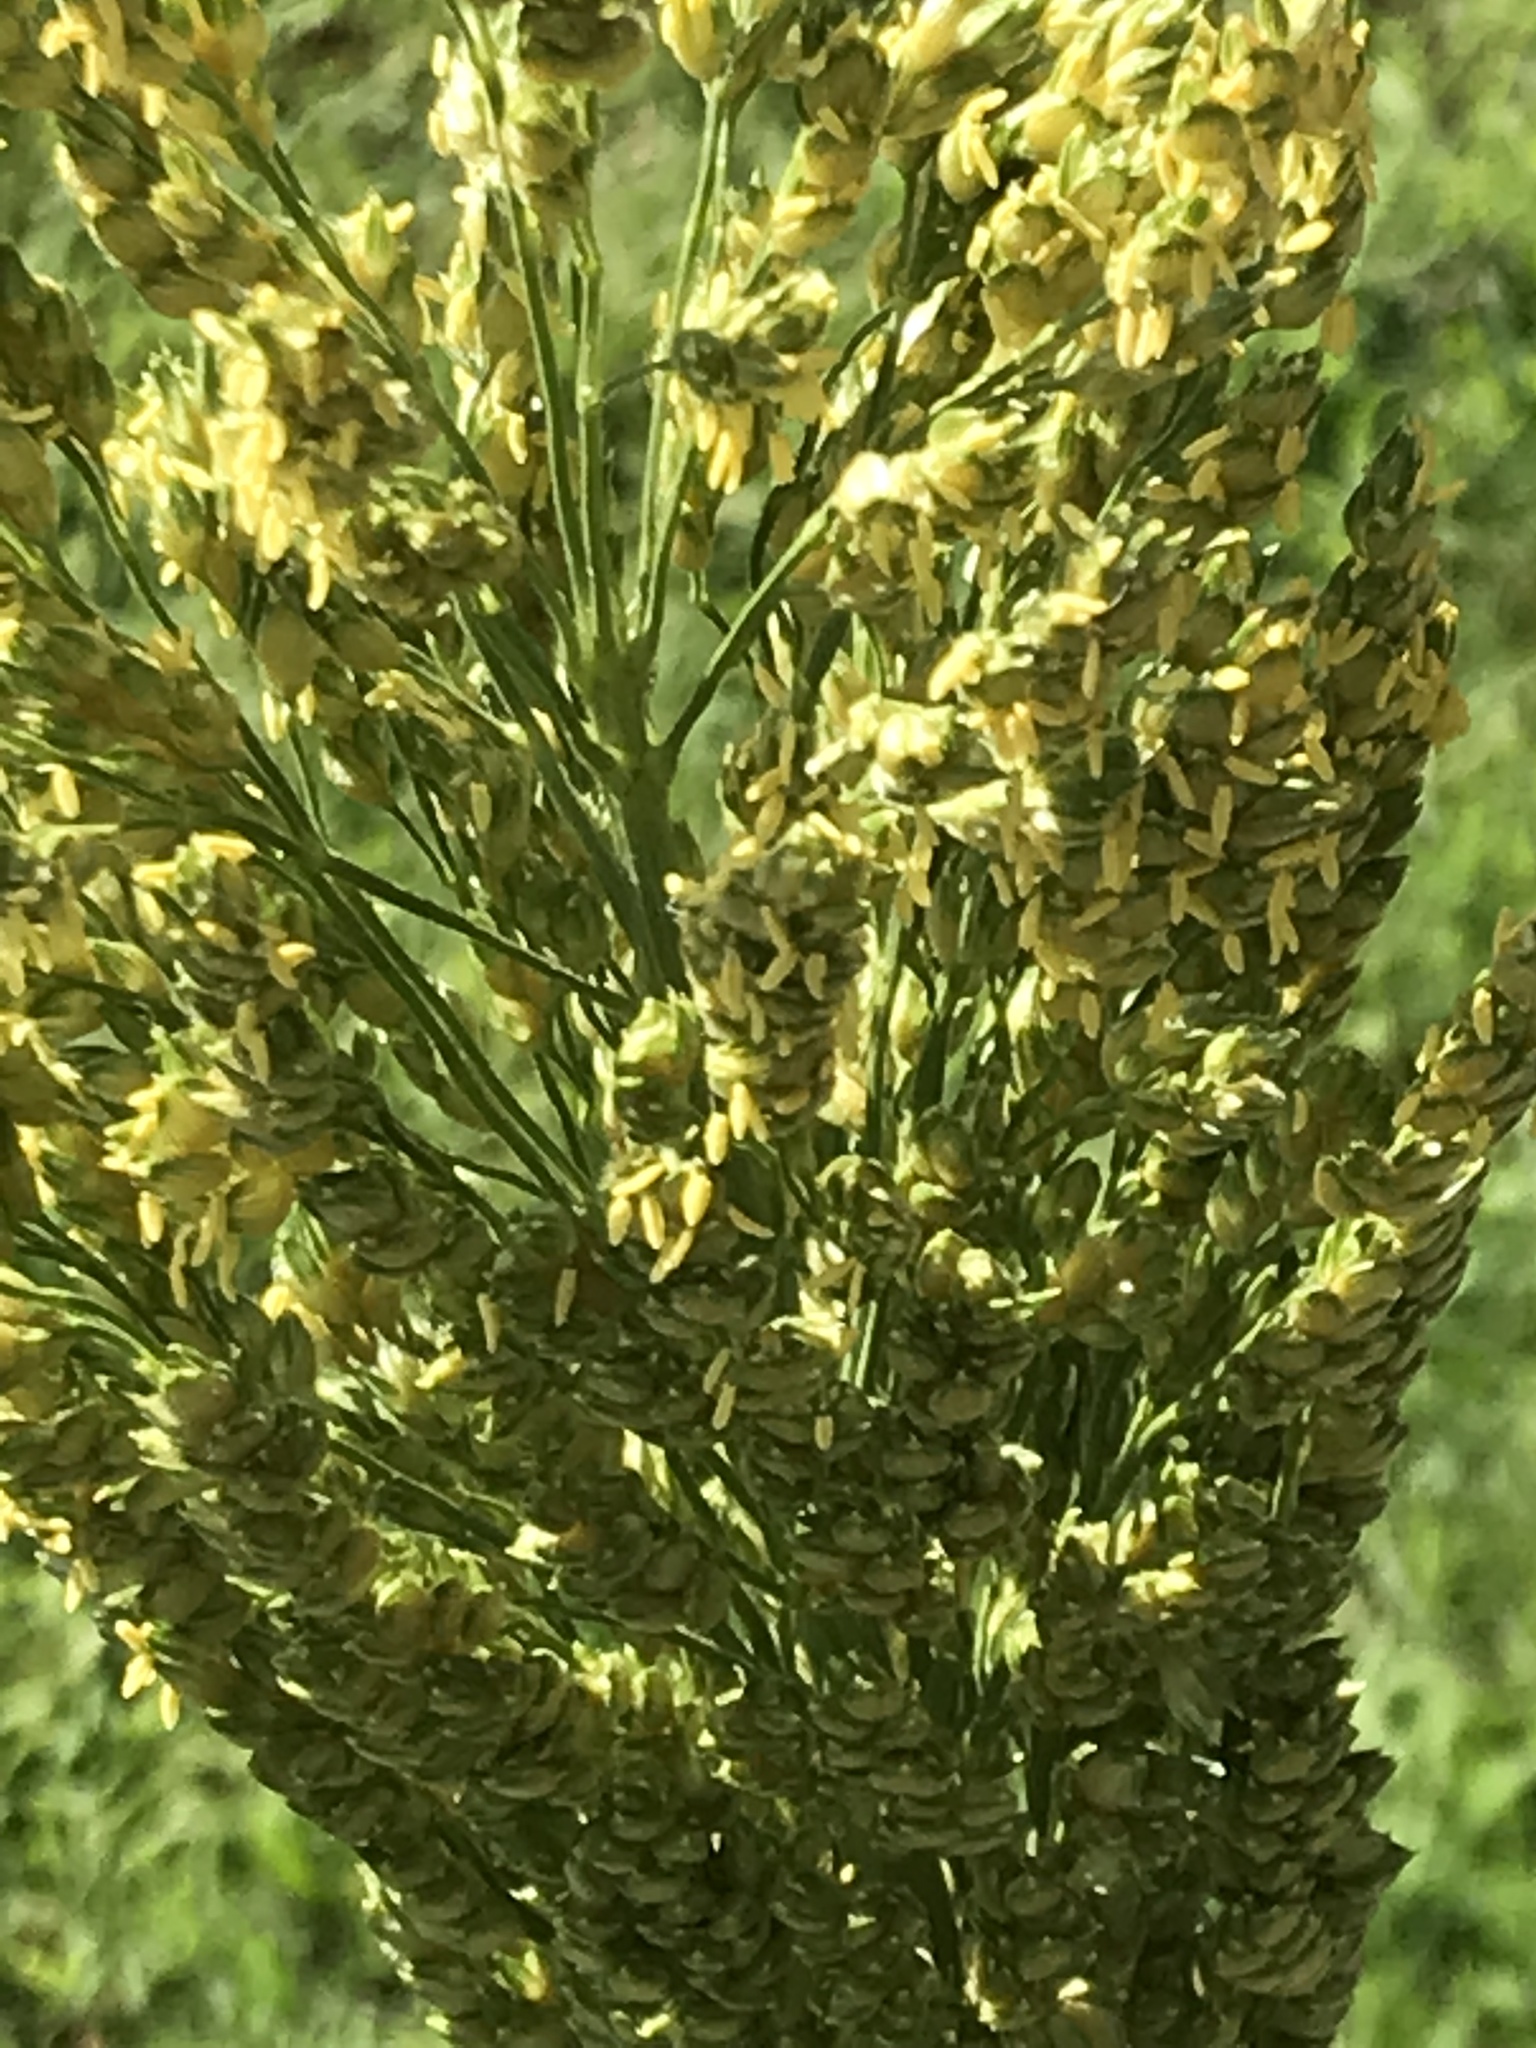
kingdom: Plantae
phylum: Tracheophyta
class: Liliopsida
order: Poales
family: Poaceae
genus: Sorghum
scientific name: Sorghum bicolor
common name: Sorghum
